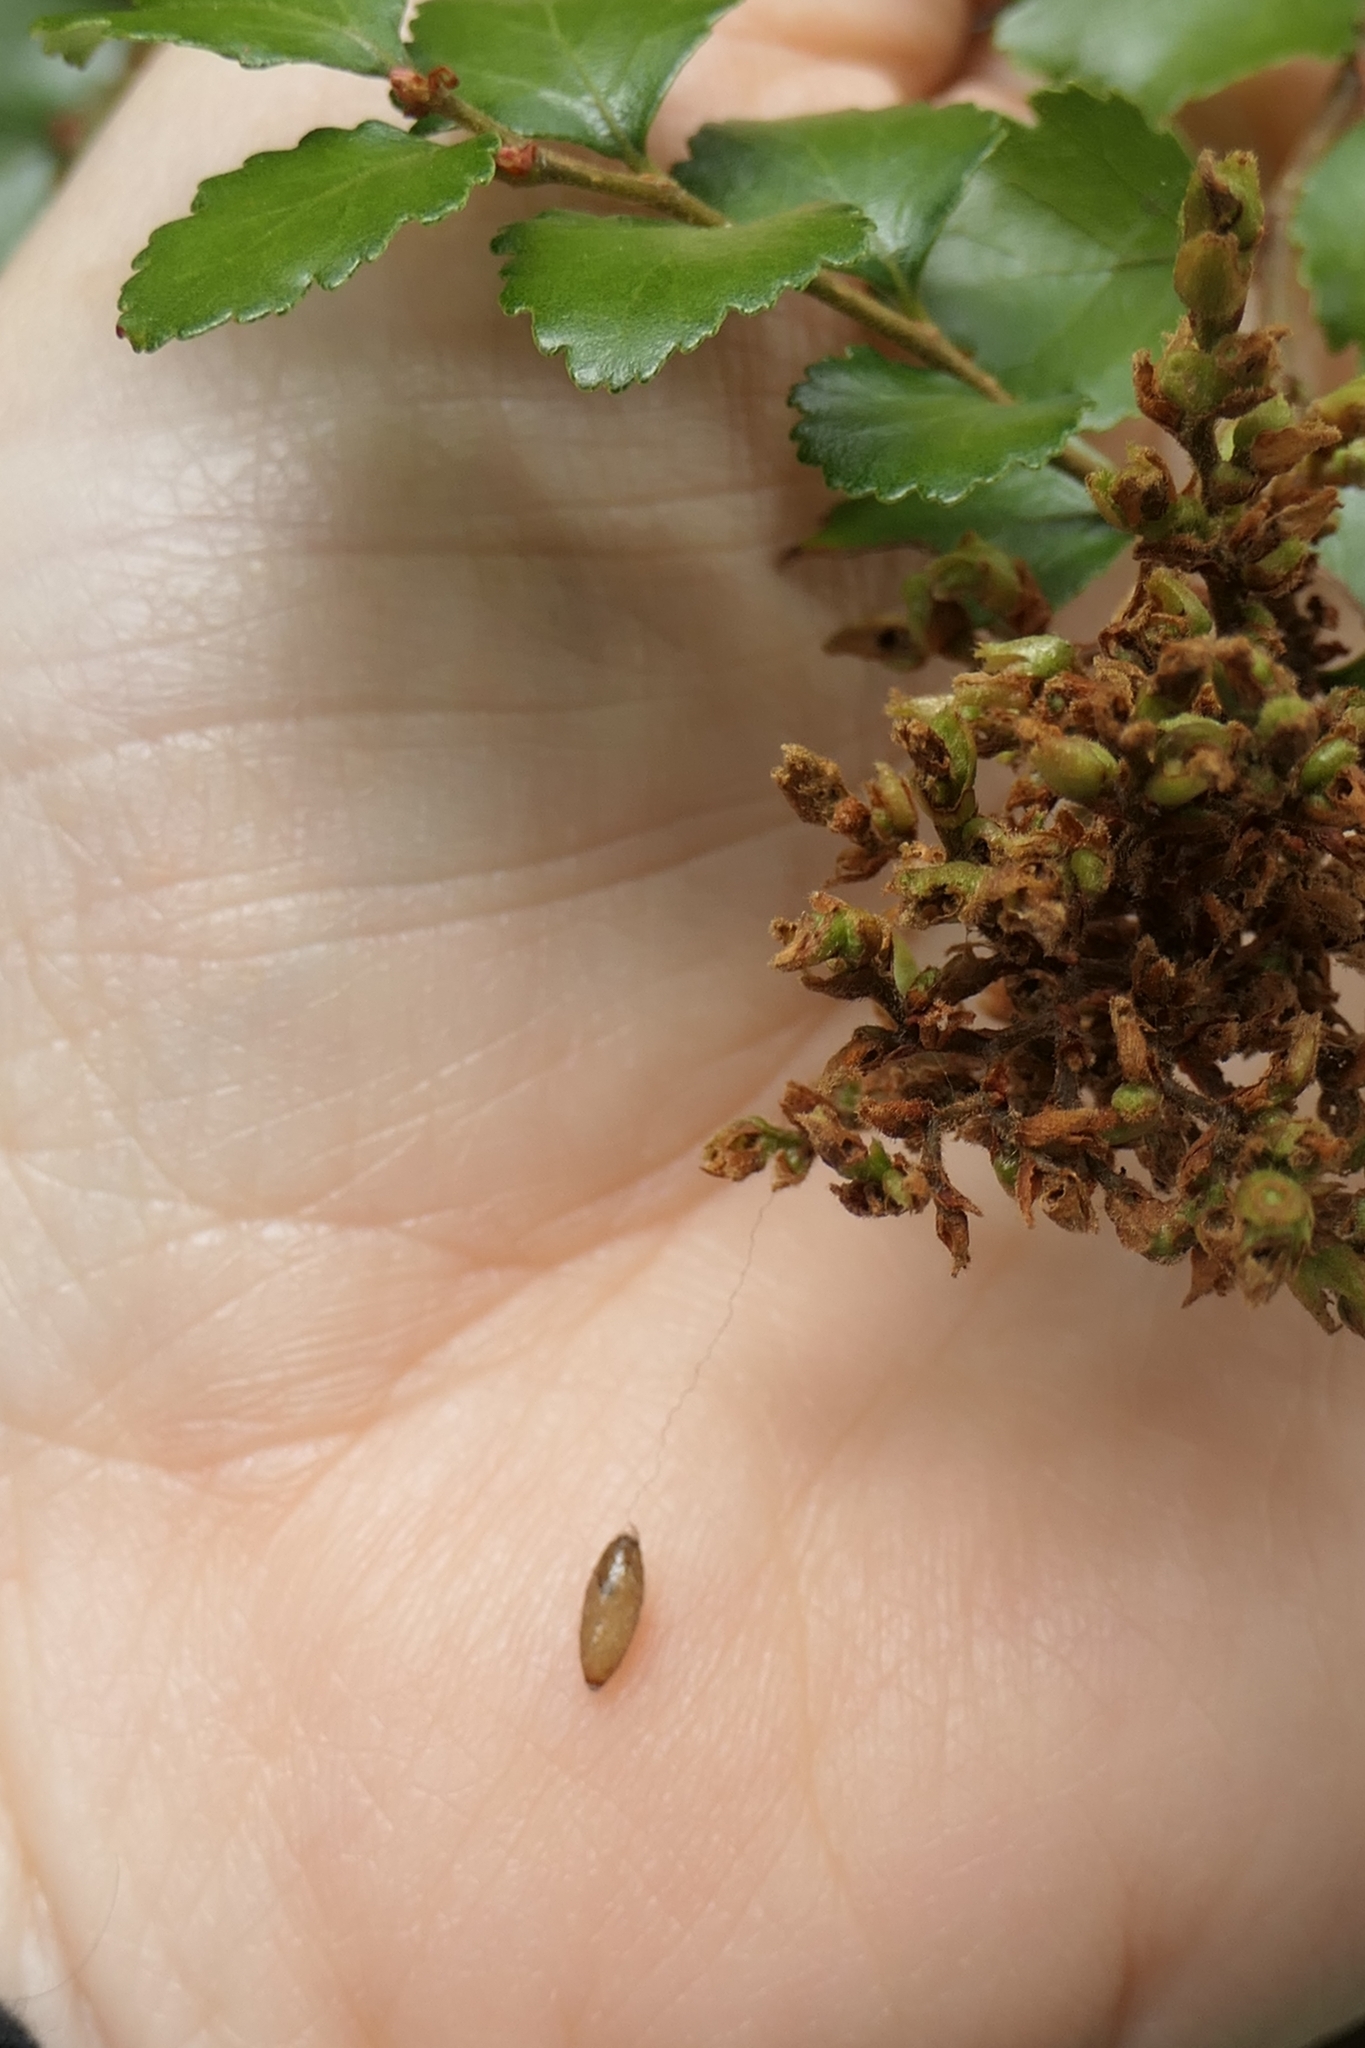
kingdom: Animalia
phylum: Arthropoda
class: Insecta
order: Hymenoptera
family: Braconidae
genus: Meteorus
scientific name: Meteorus pulchricornis
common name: Braconid wasp
